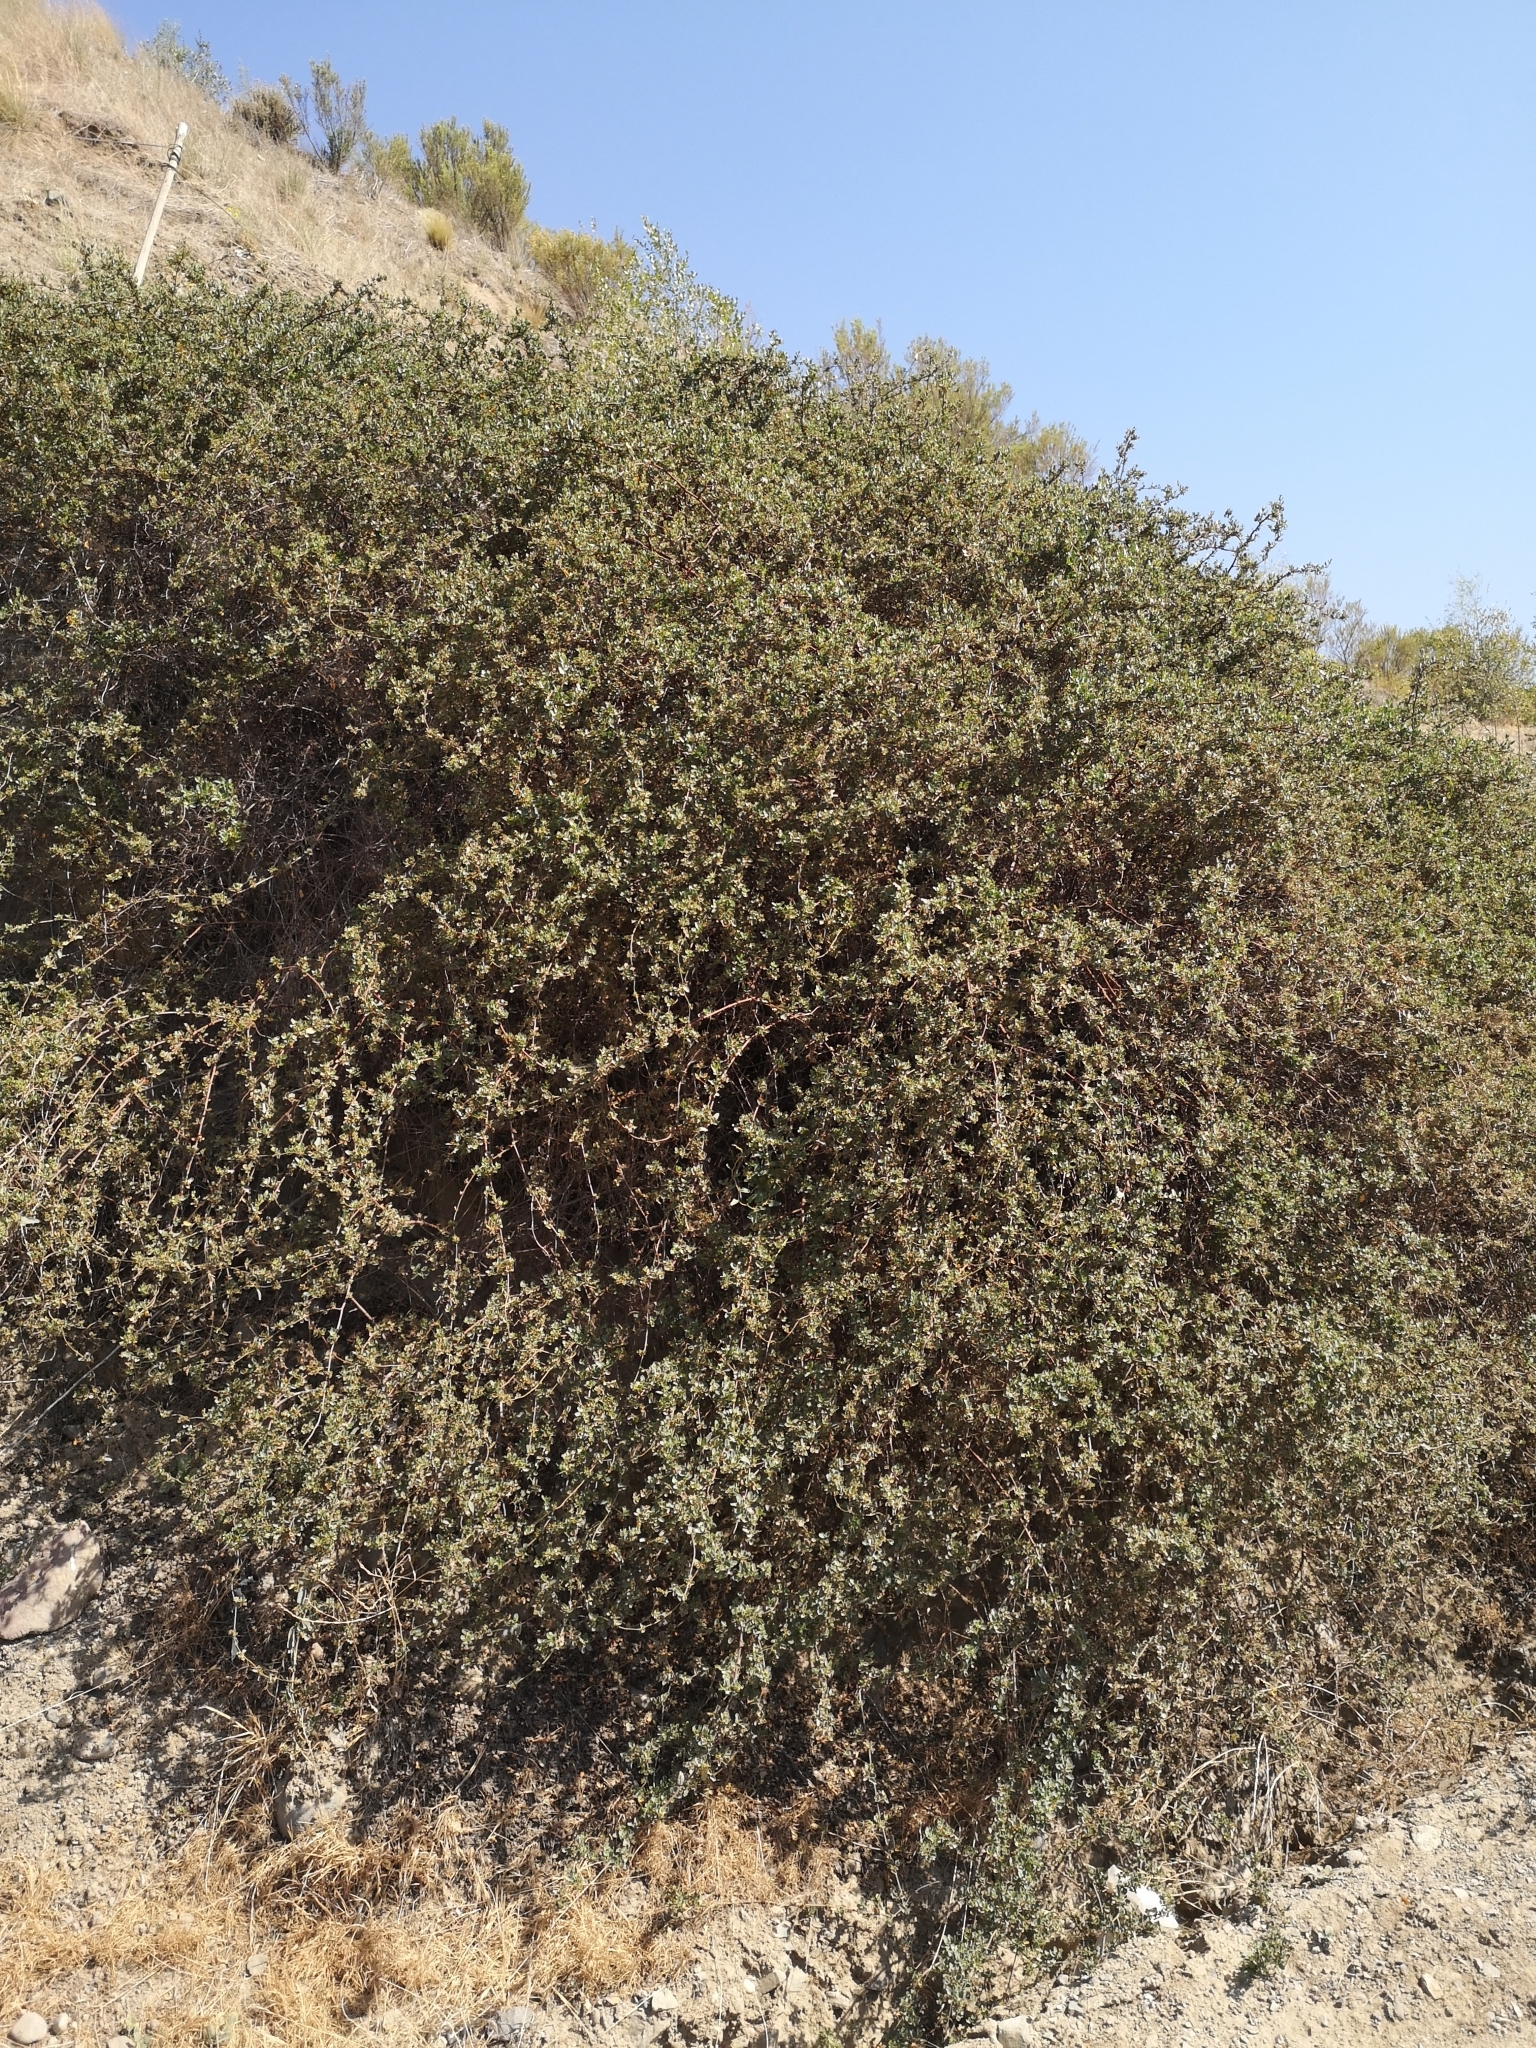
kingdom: Plantae
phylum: Tracheophyta
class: Magnoliopsida
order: Caryophyllales
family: Polygonaceae
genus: Muehlenbeckia
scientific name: Muehlenbeckia hastulata
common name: Wirevine
